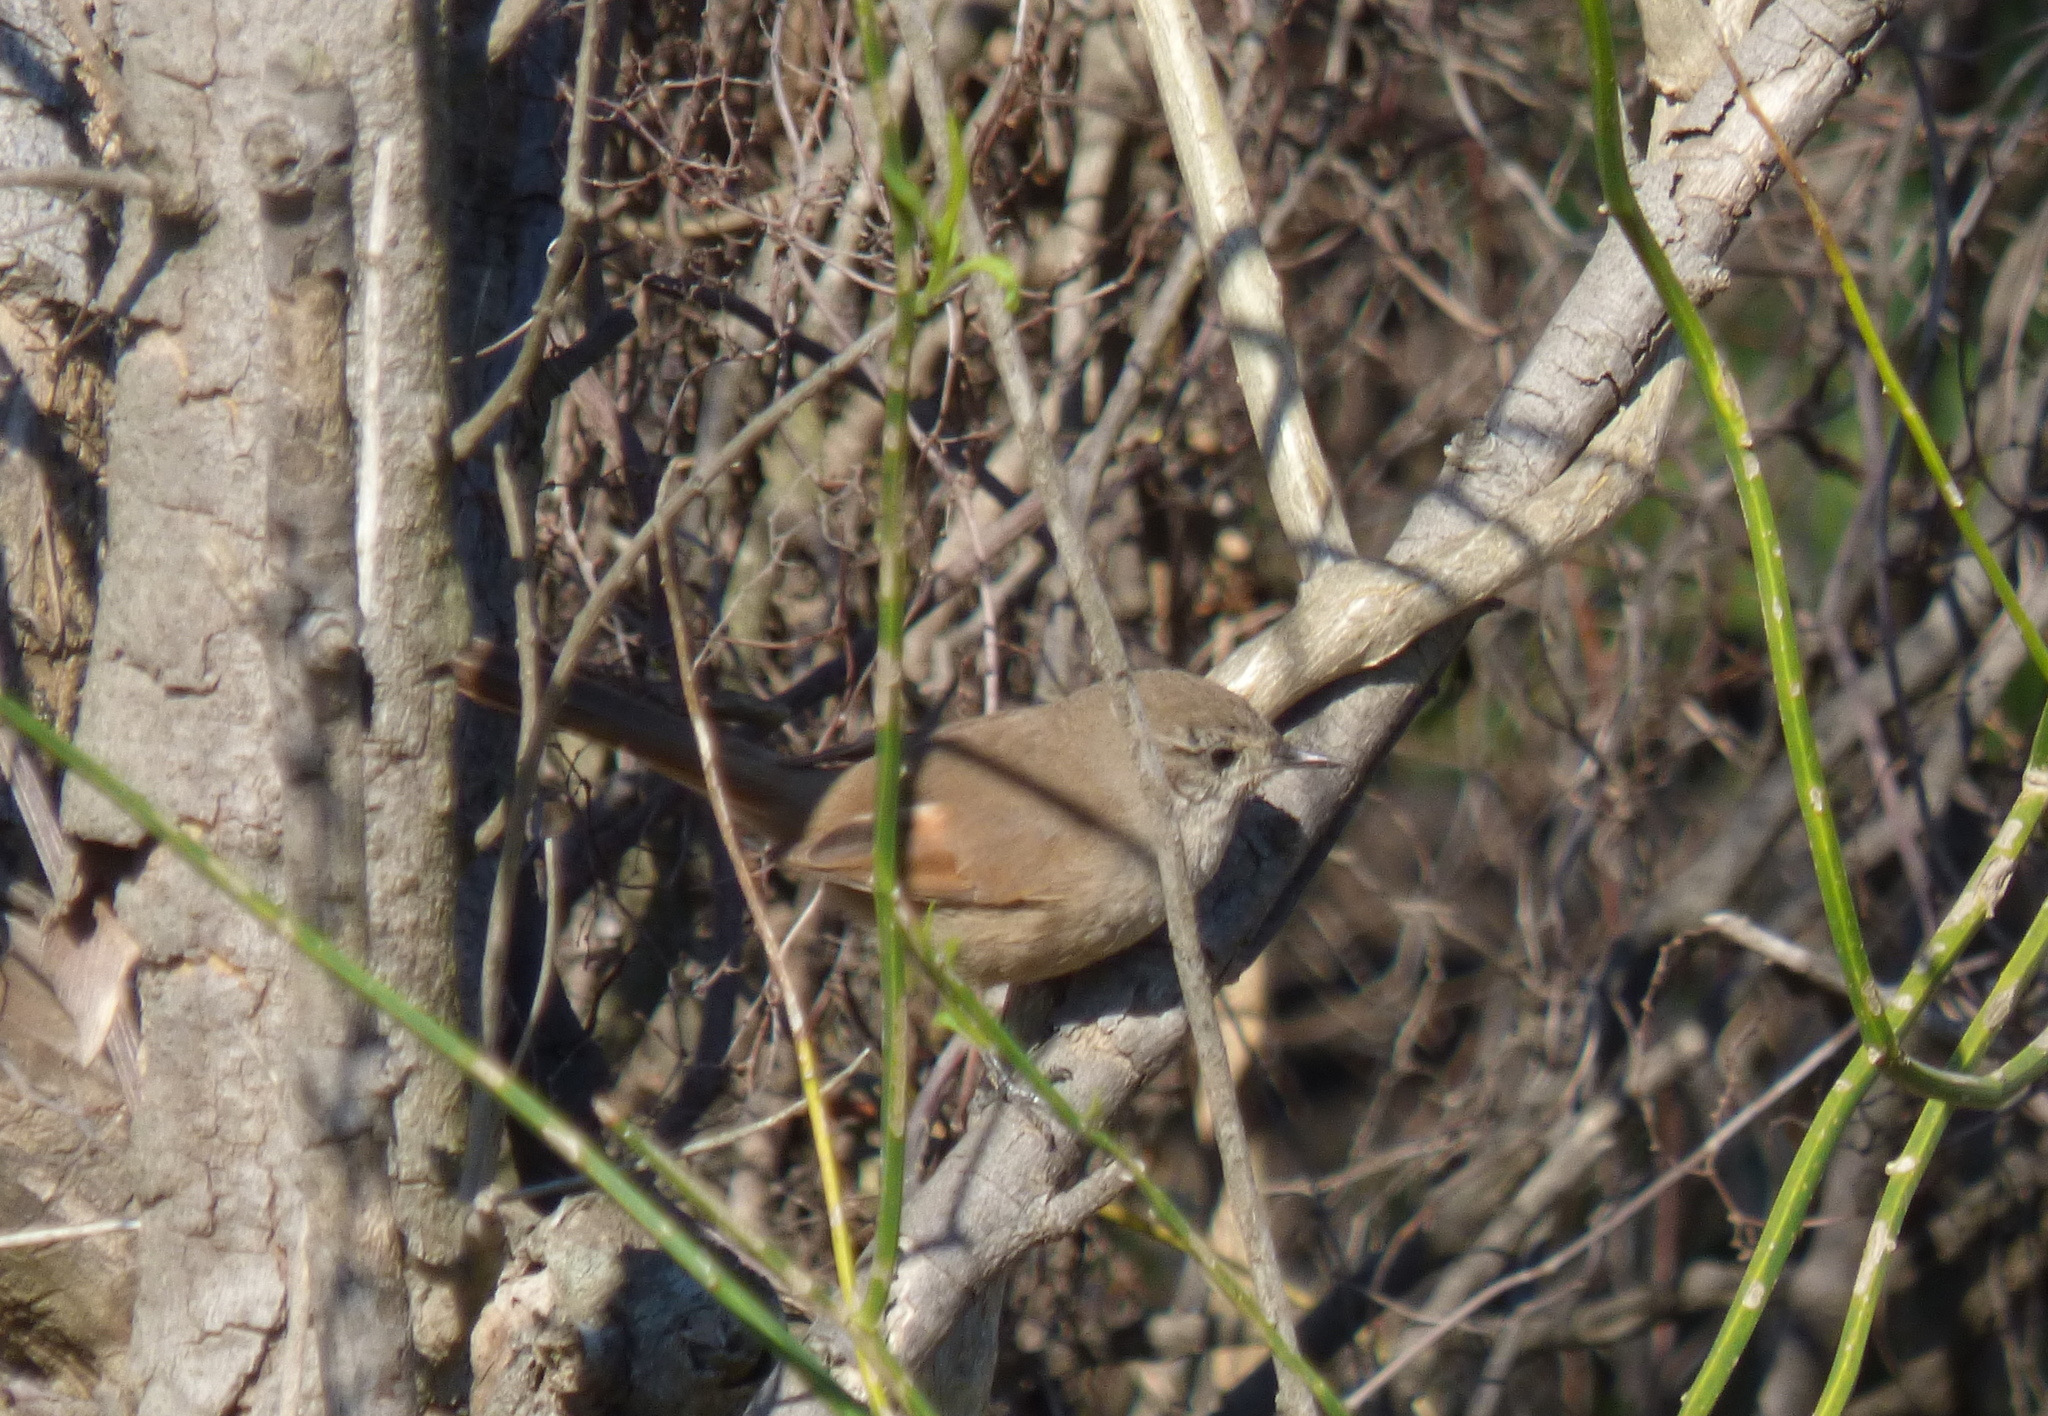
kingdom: Animalia
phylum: Chordata
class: Aves
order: Passeriformes
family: Furnariidae
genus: Asthenes
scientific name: Asthenes pyrrholeuca
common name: Sharp-billed canastero
